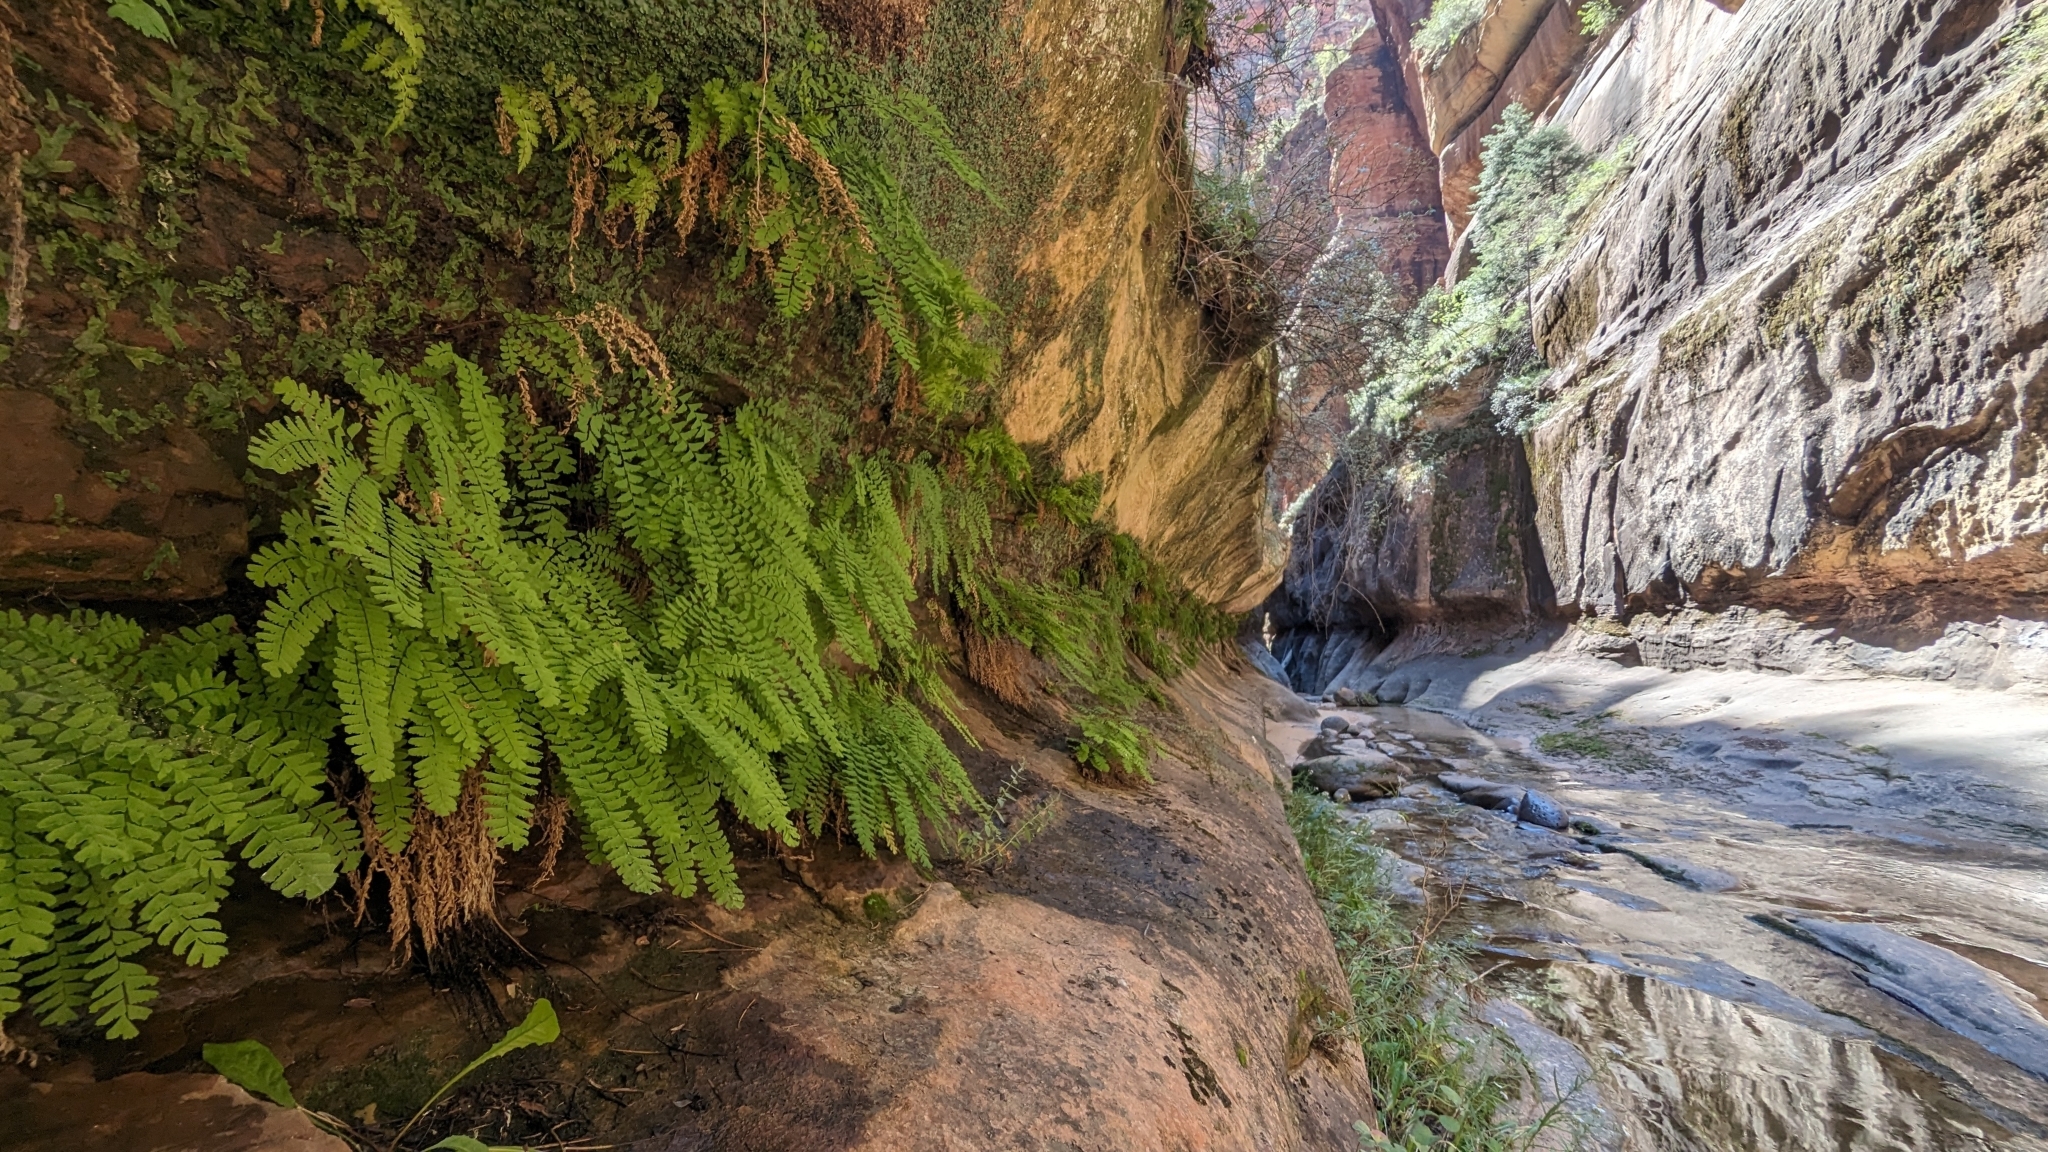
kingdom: Plantae
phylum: Tracheophyta
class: Polypodiopsida
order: Polypodiales
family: Pteridaceae
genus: Adiantum
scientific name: Adiantum aleuticum
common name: Aleutian maidenhair fern
